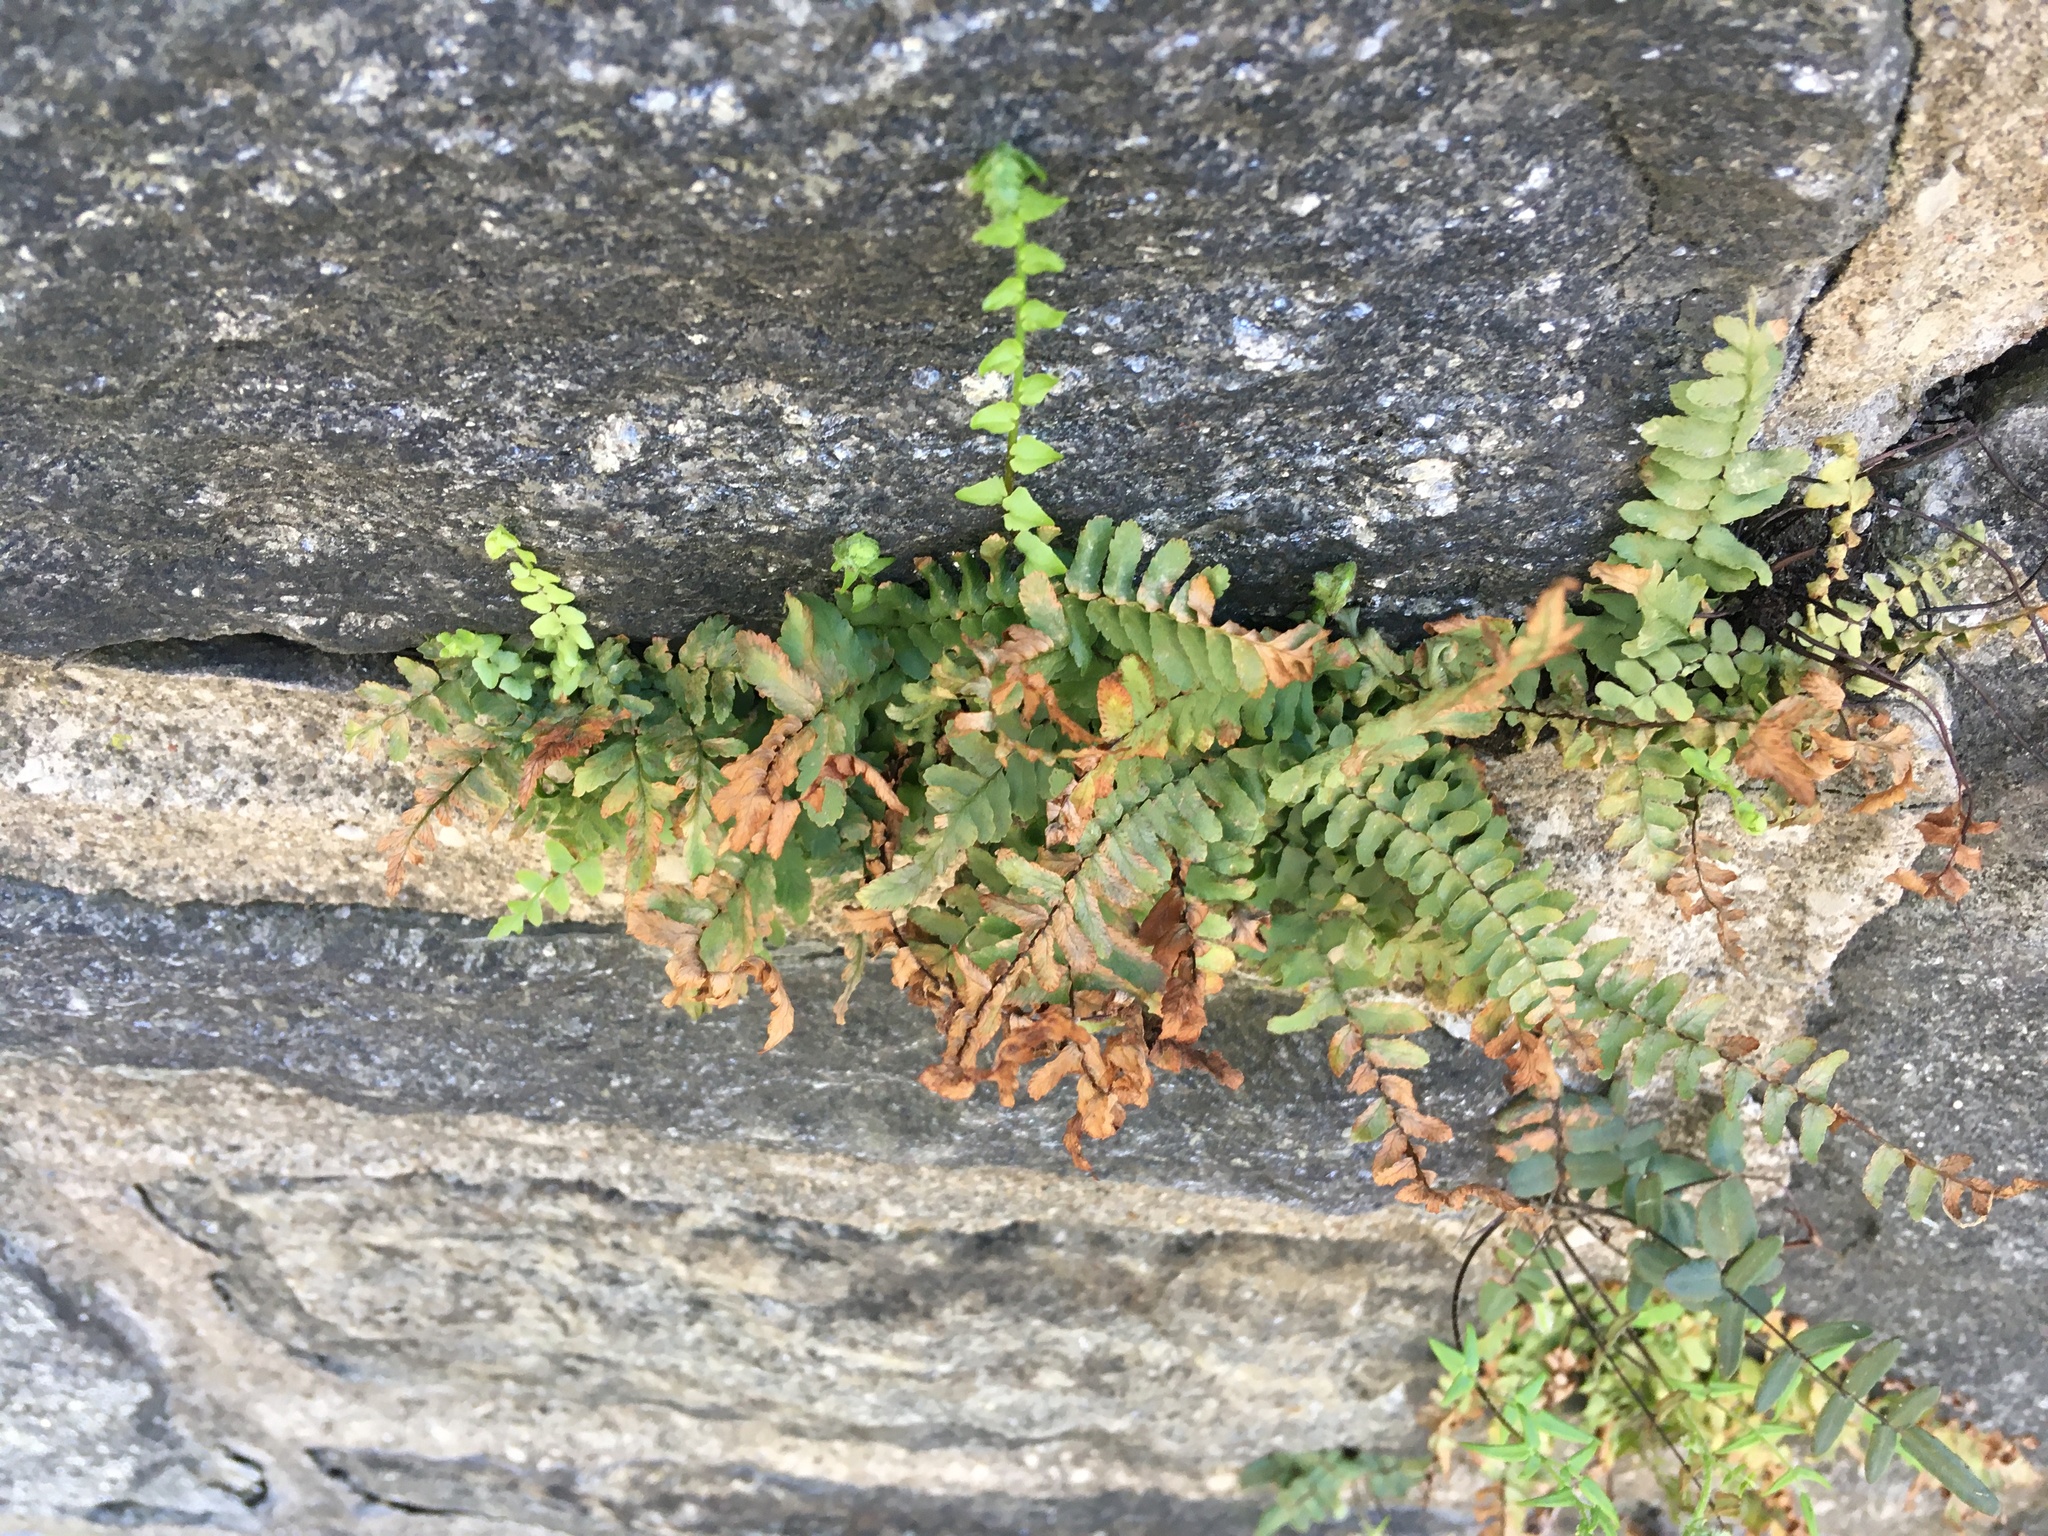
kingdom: Plantae
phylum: Tracheophyta
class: Polypodiopsida
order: Polypodiales
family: Aspleniaceae
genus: Asplenium
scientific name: Asplenium platyneuron
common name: Ebony spleenwort
